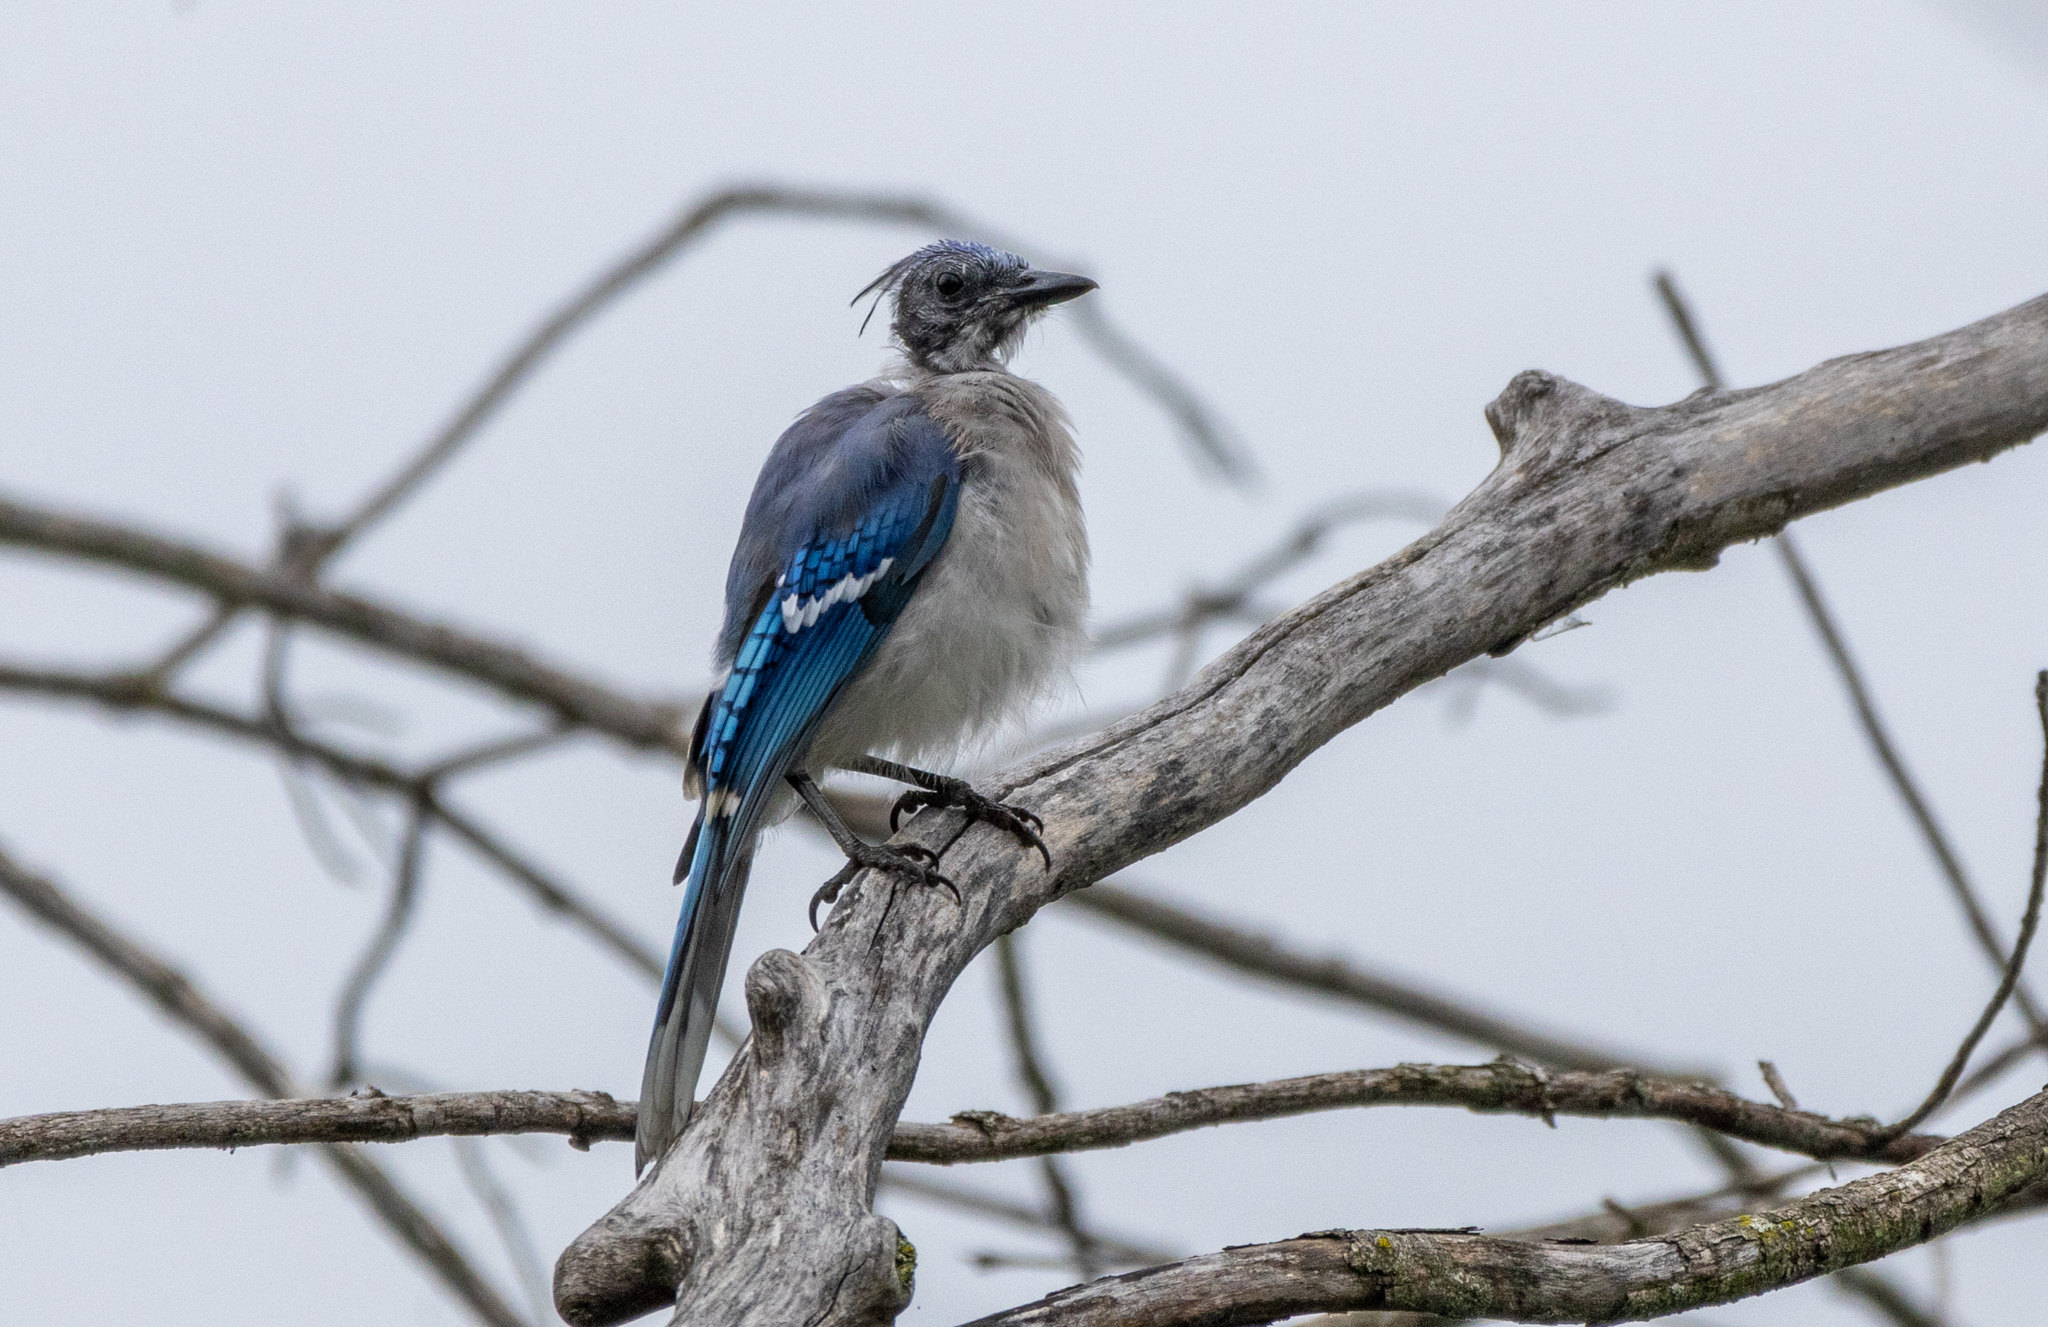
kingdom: Animalia
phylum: Chordata
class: Aves
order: Passeriformes
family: Corvidae
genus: Cyanocitta
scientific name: Cyanocitta cristata
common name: Blue jay
